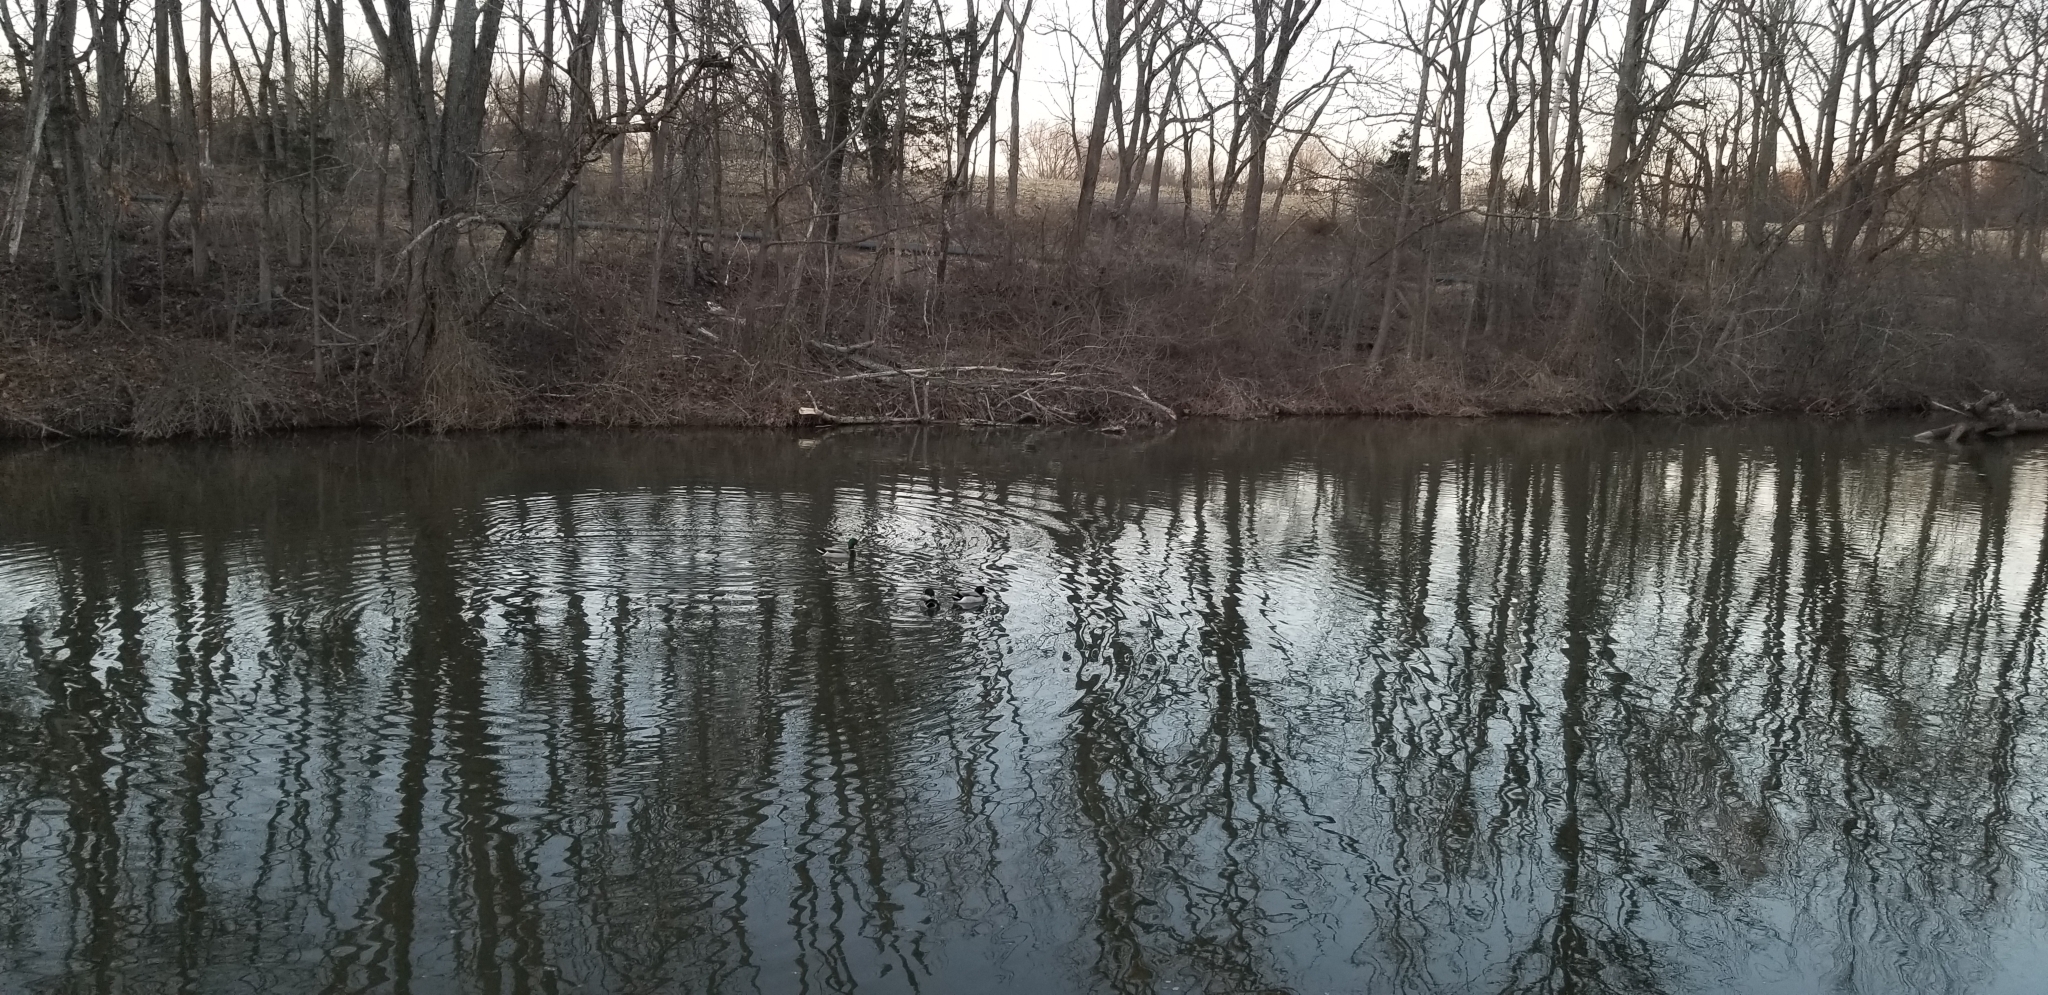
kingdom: Animalia
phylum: Chordata
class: Aves
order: Anseriformes
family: Anatidae
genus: Anas
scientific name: Anas platyrhynchos
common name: Mallard
